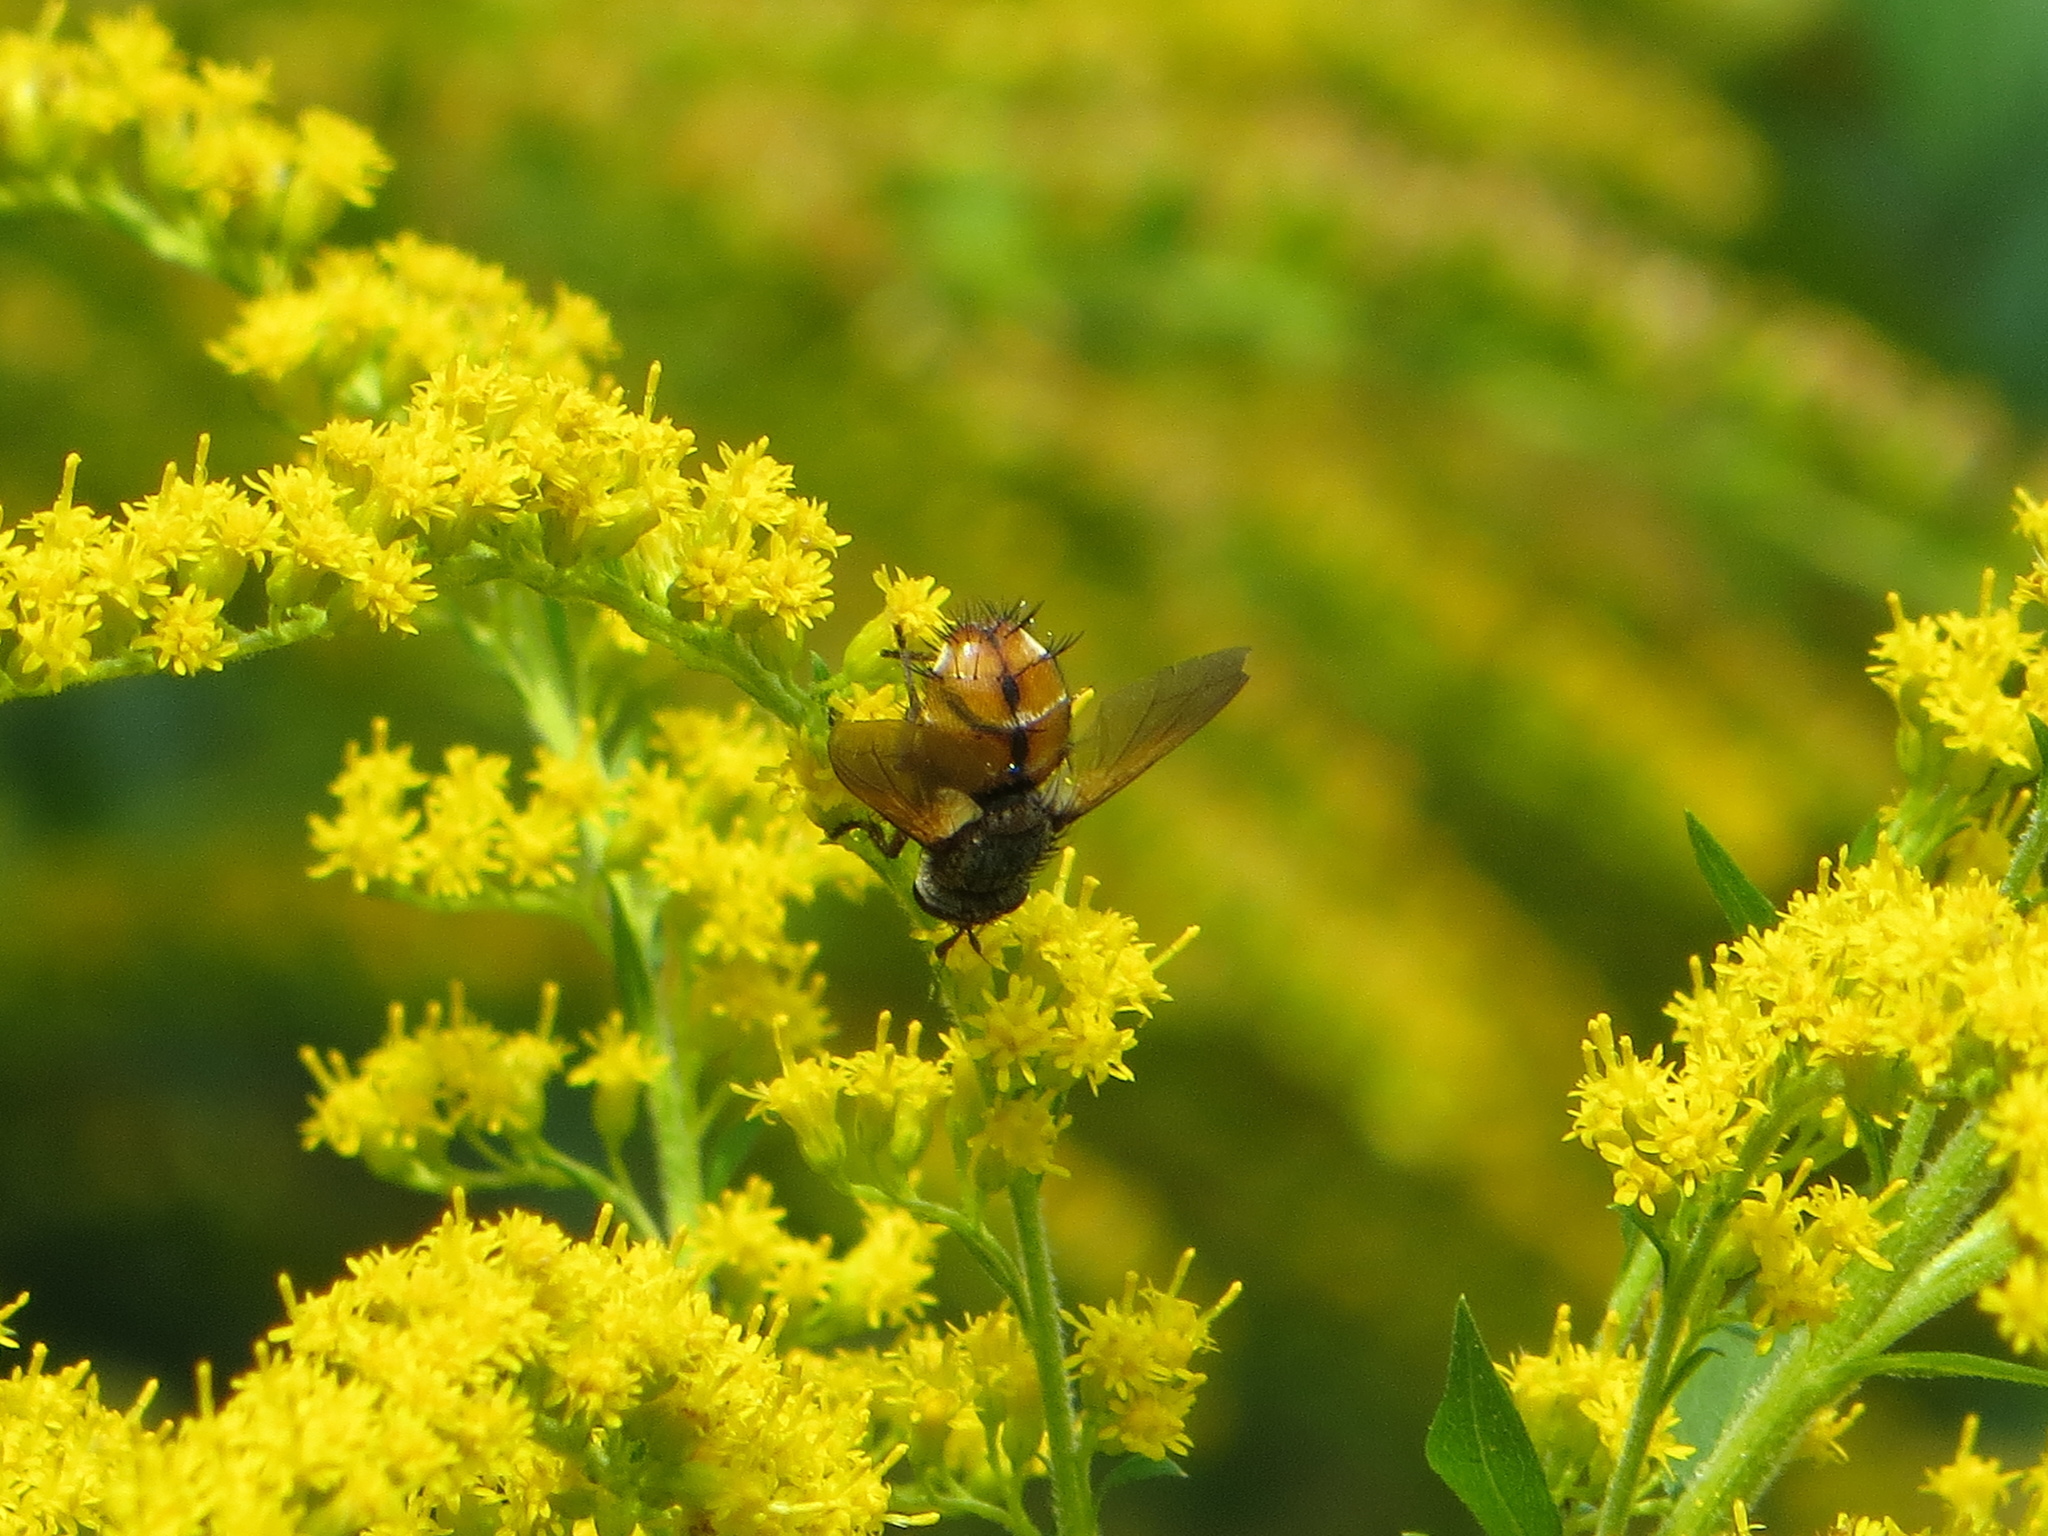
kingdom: Animalia
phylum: Arthropoda
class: Insecta
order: Diptera
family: Tachinidae
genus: Tachina
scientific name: Tachina fera
